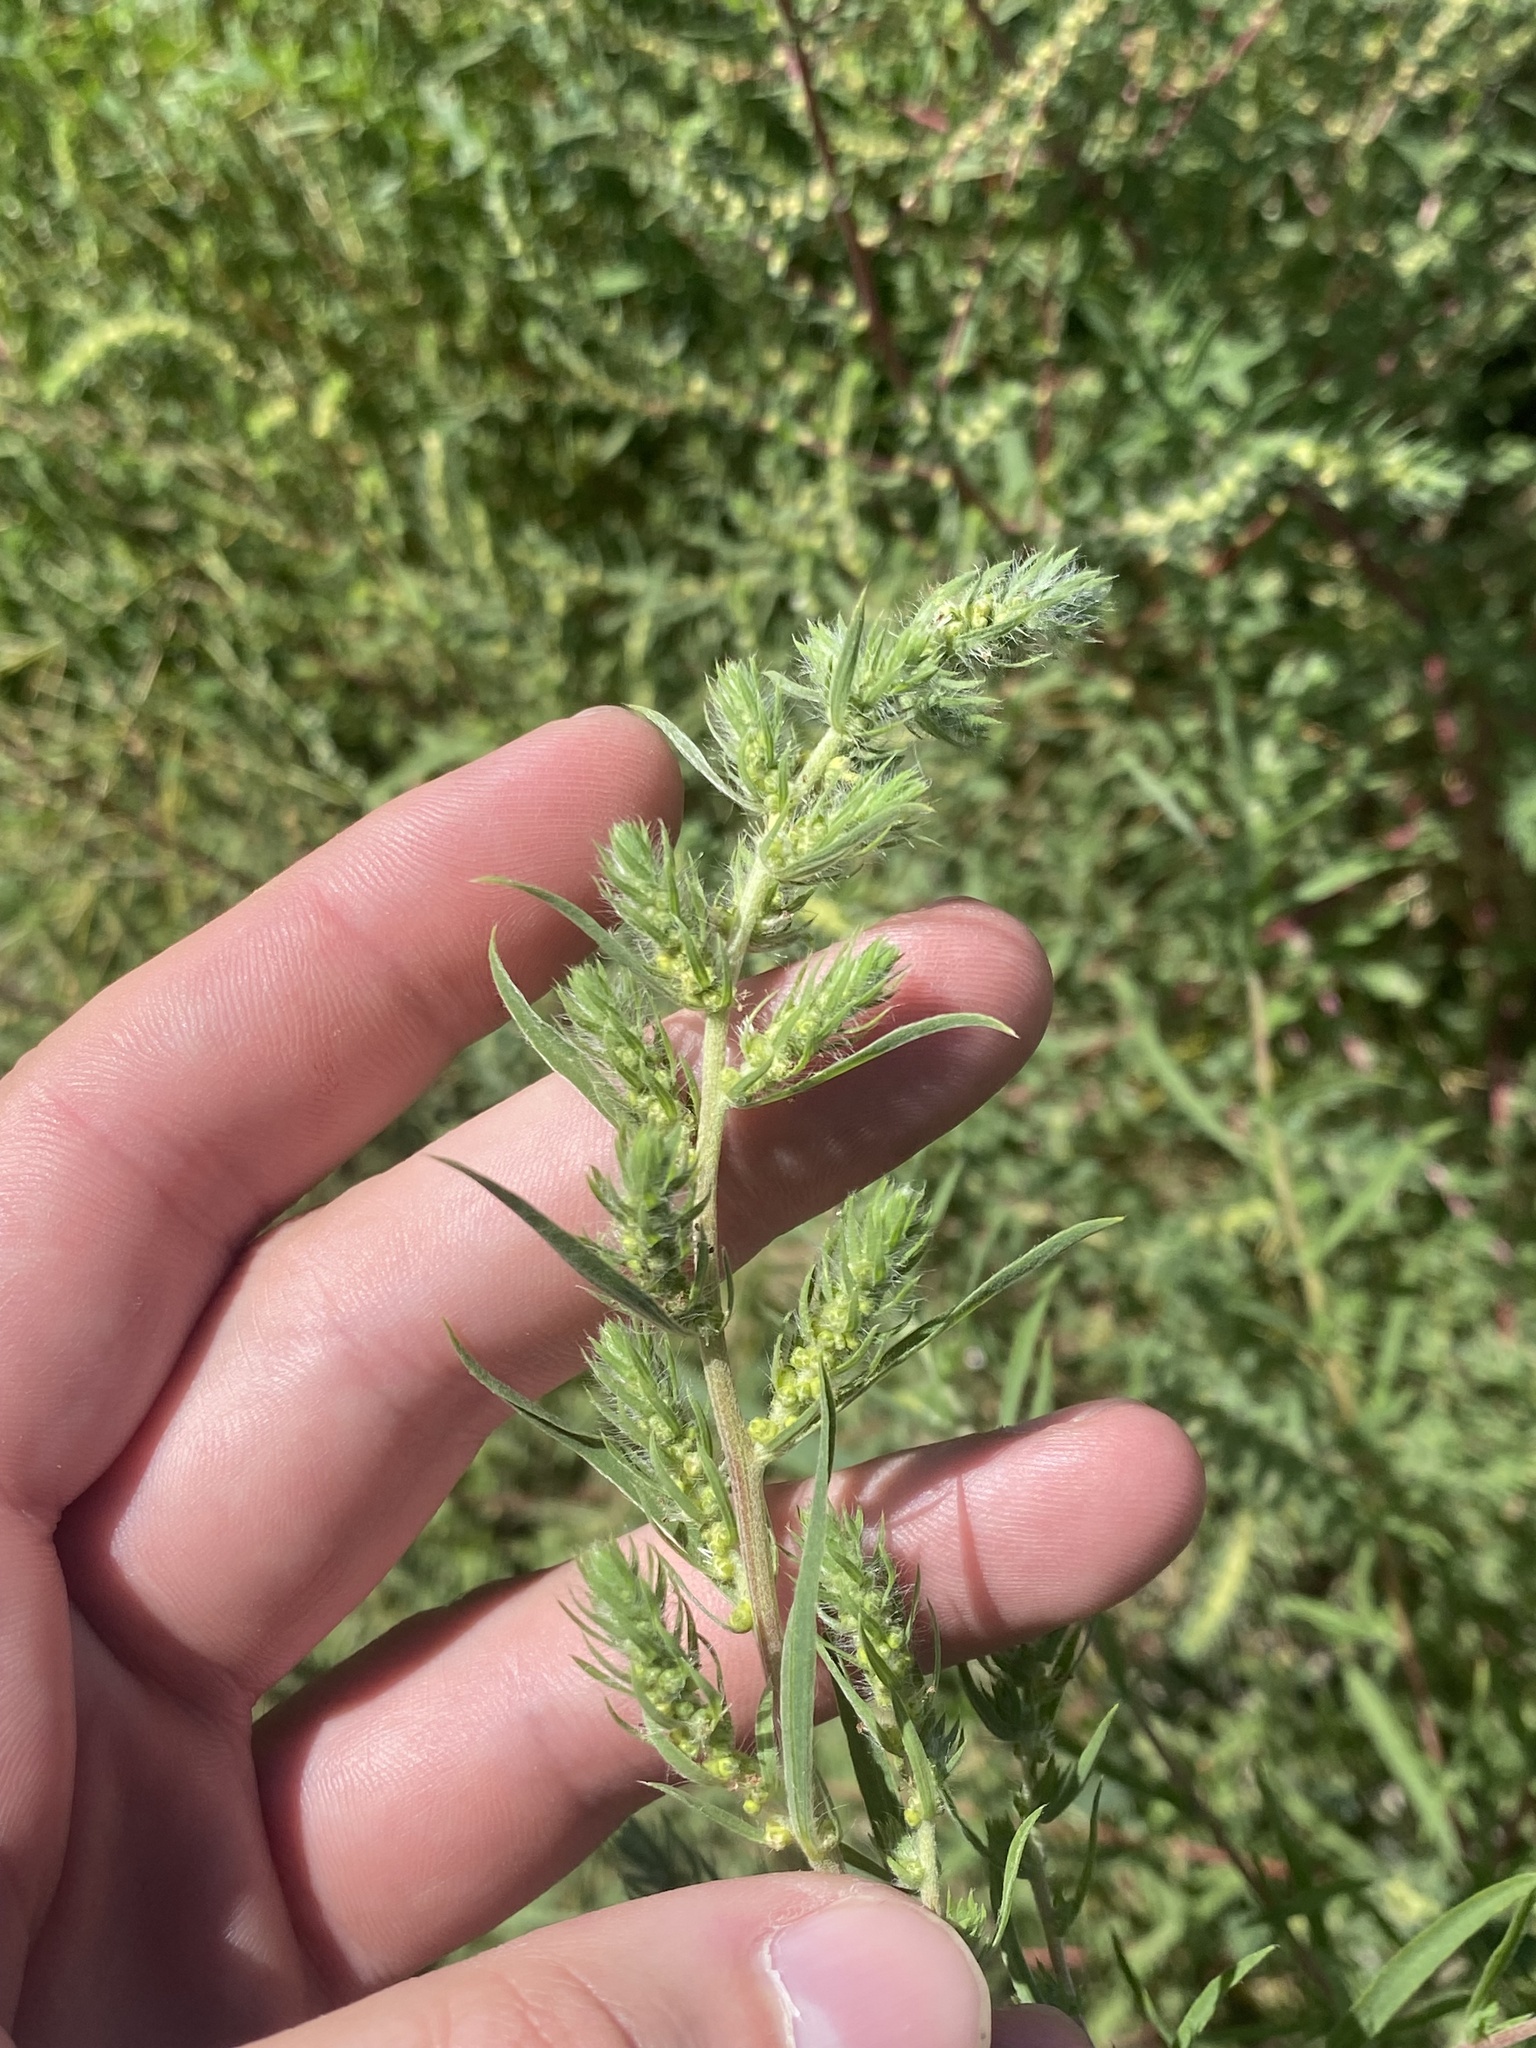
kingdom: Plantae
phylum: Tracheophyta
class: Magnoliopsida
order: Caryophyllales
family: Amaranthaceae
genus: Bassia
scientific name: Bassia scoparia
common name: Belvedere
